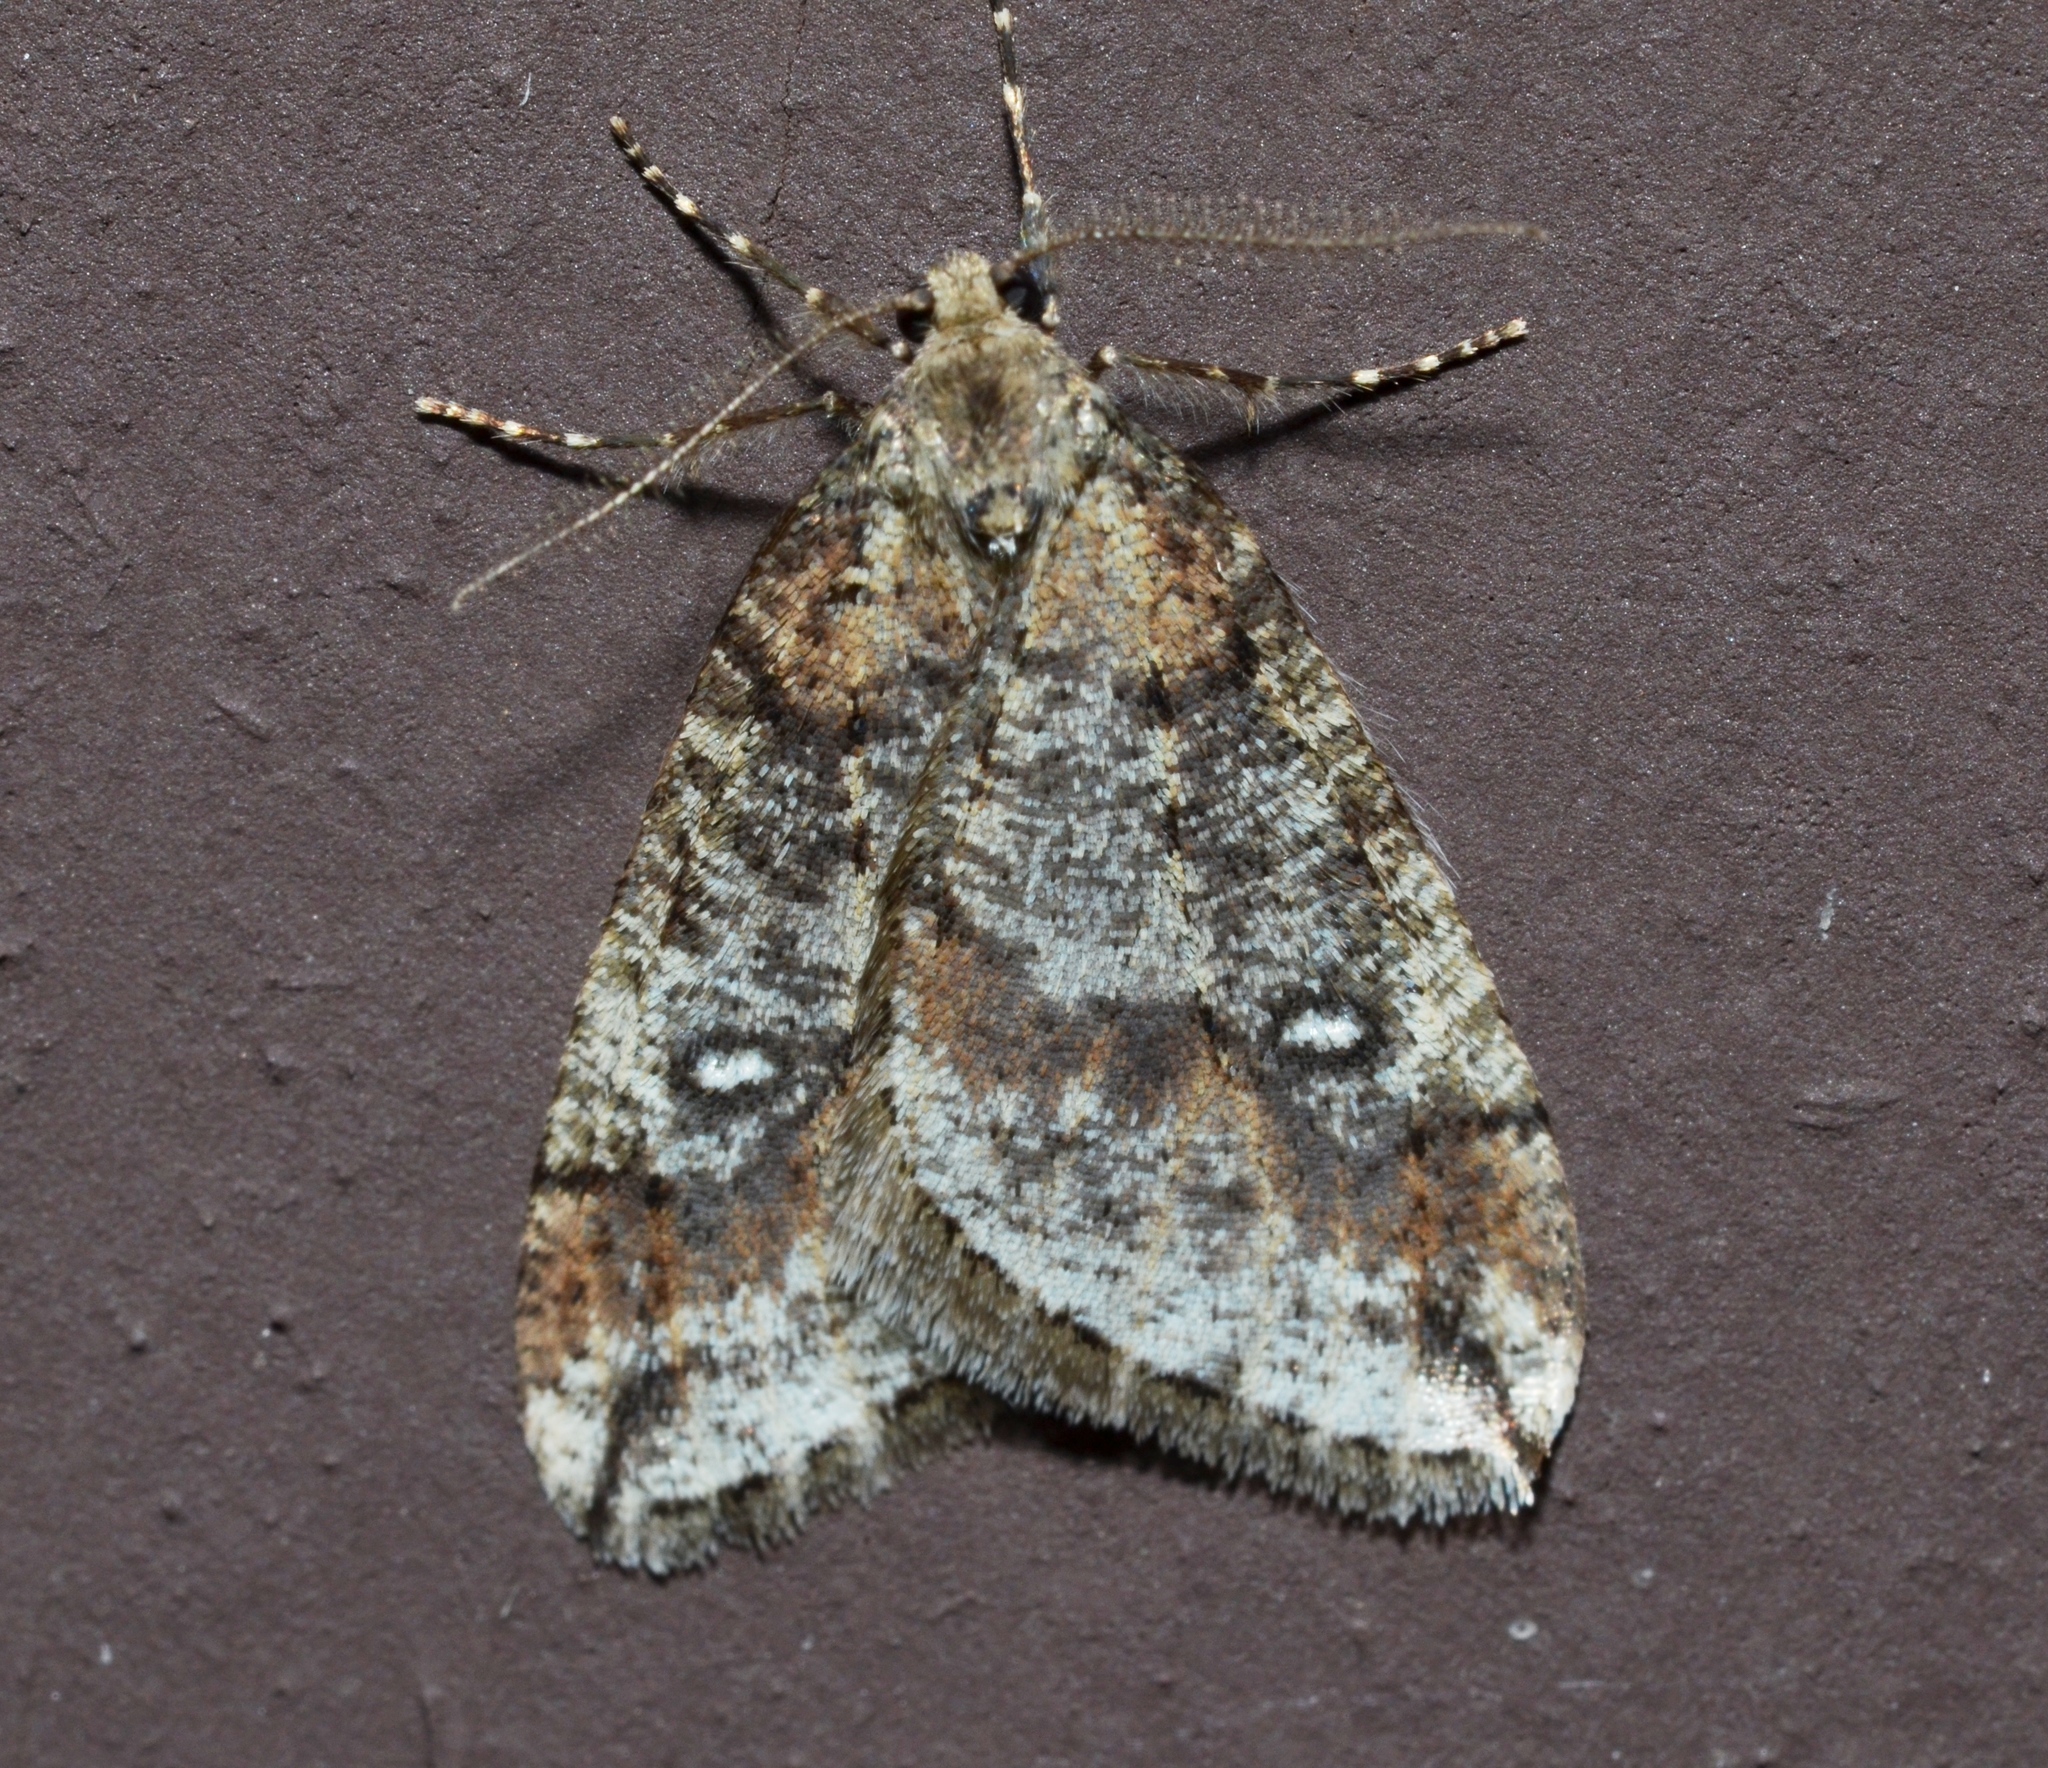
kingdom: Animalia
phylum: Arthropoda
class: Insecta
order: Lepidoptera
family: Geometridae
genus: Paleacrita
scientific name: Paleacrita merriccata
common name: White-spotted canker worm
